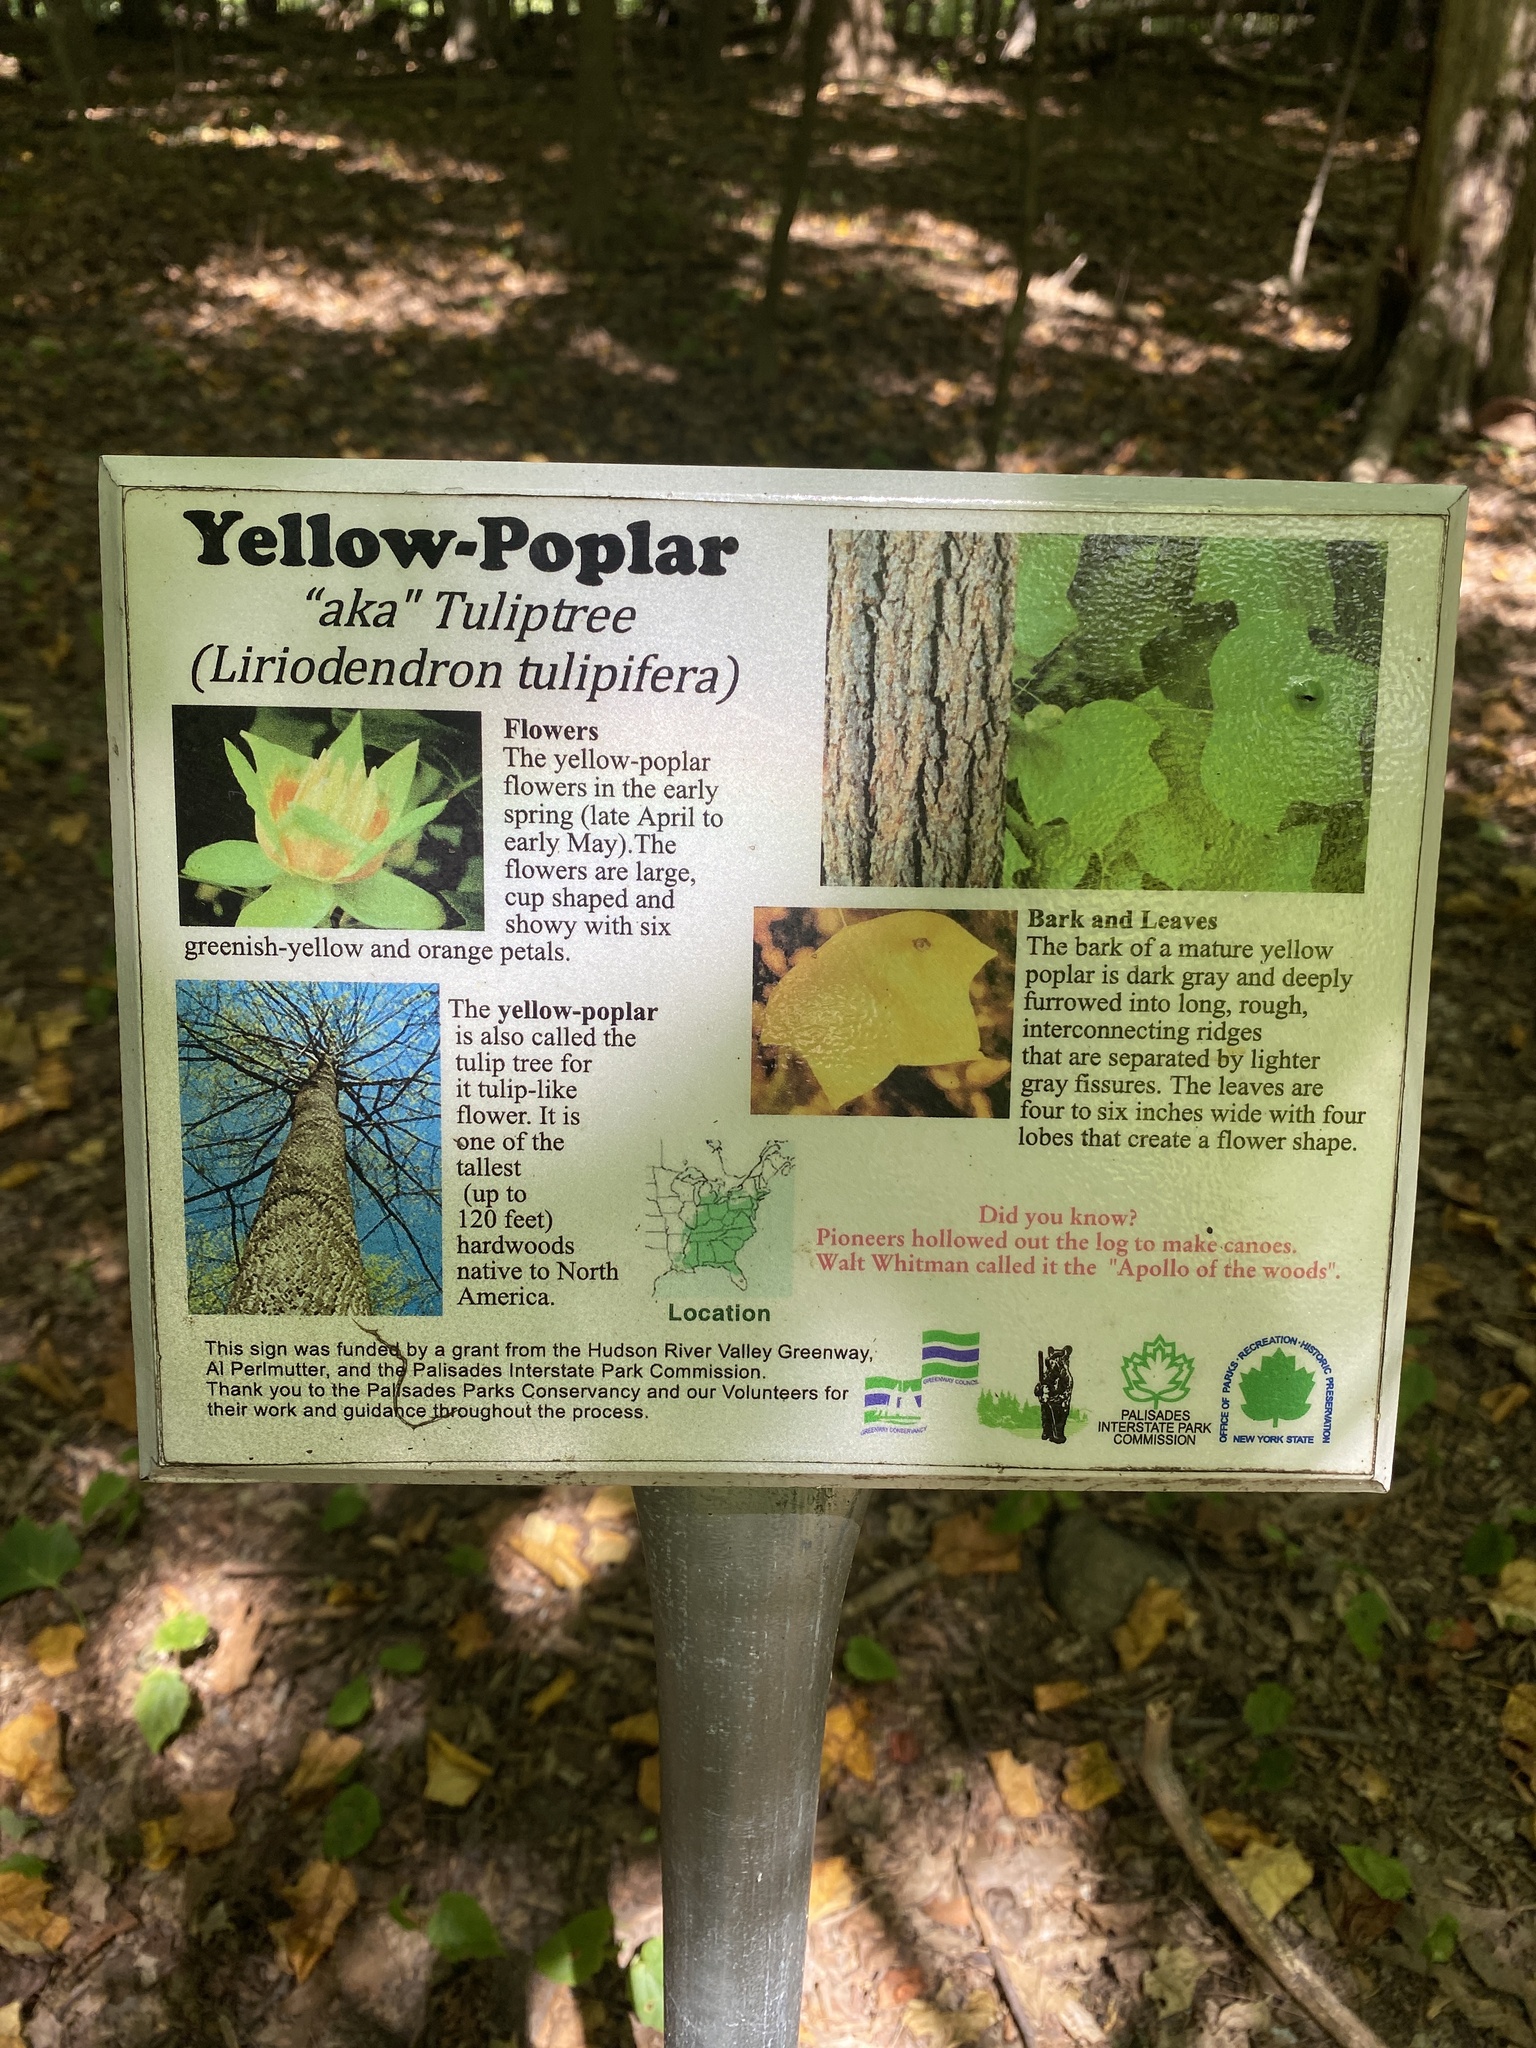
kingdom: Plantae
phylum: Tracheophyta
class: Magnoliopsida
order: Magnoliales
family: Magnoliaceae
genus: Liriodendron
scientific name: Liriodendron tulipifera
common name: Tulip tree
